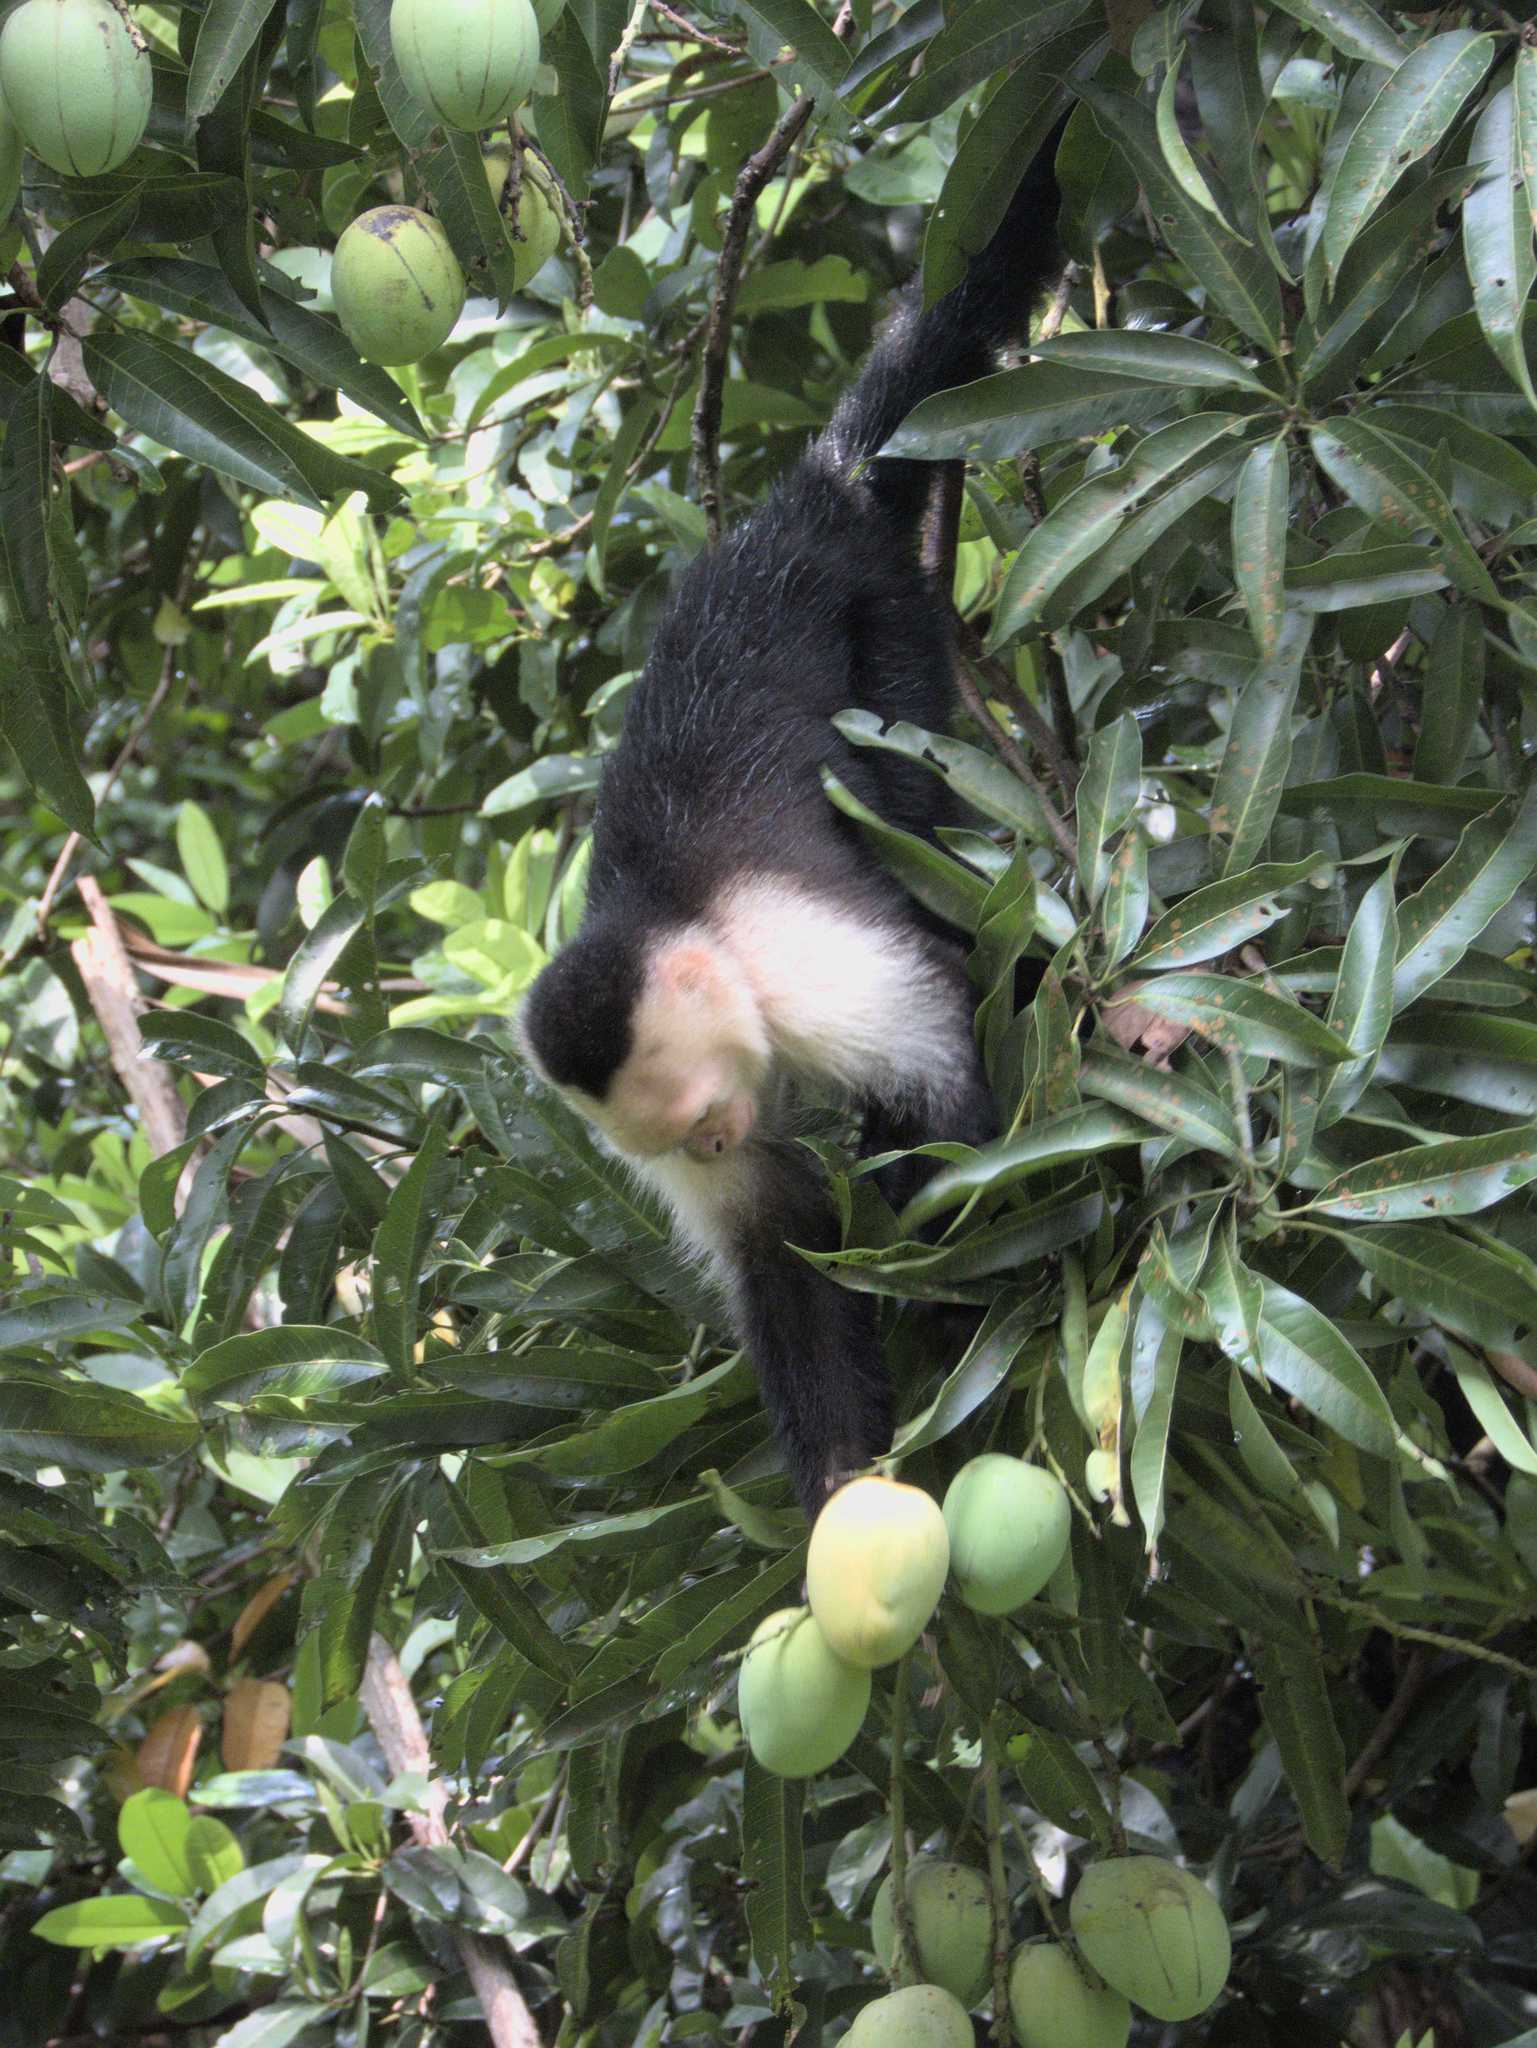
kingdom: Animalia
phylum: Chordata
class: Mammalia
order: Primates
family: Cebidae
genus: Cebus
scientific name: Cebus imitator
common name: Panamanian white-faced capuchin
